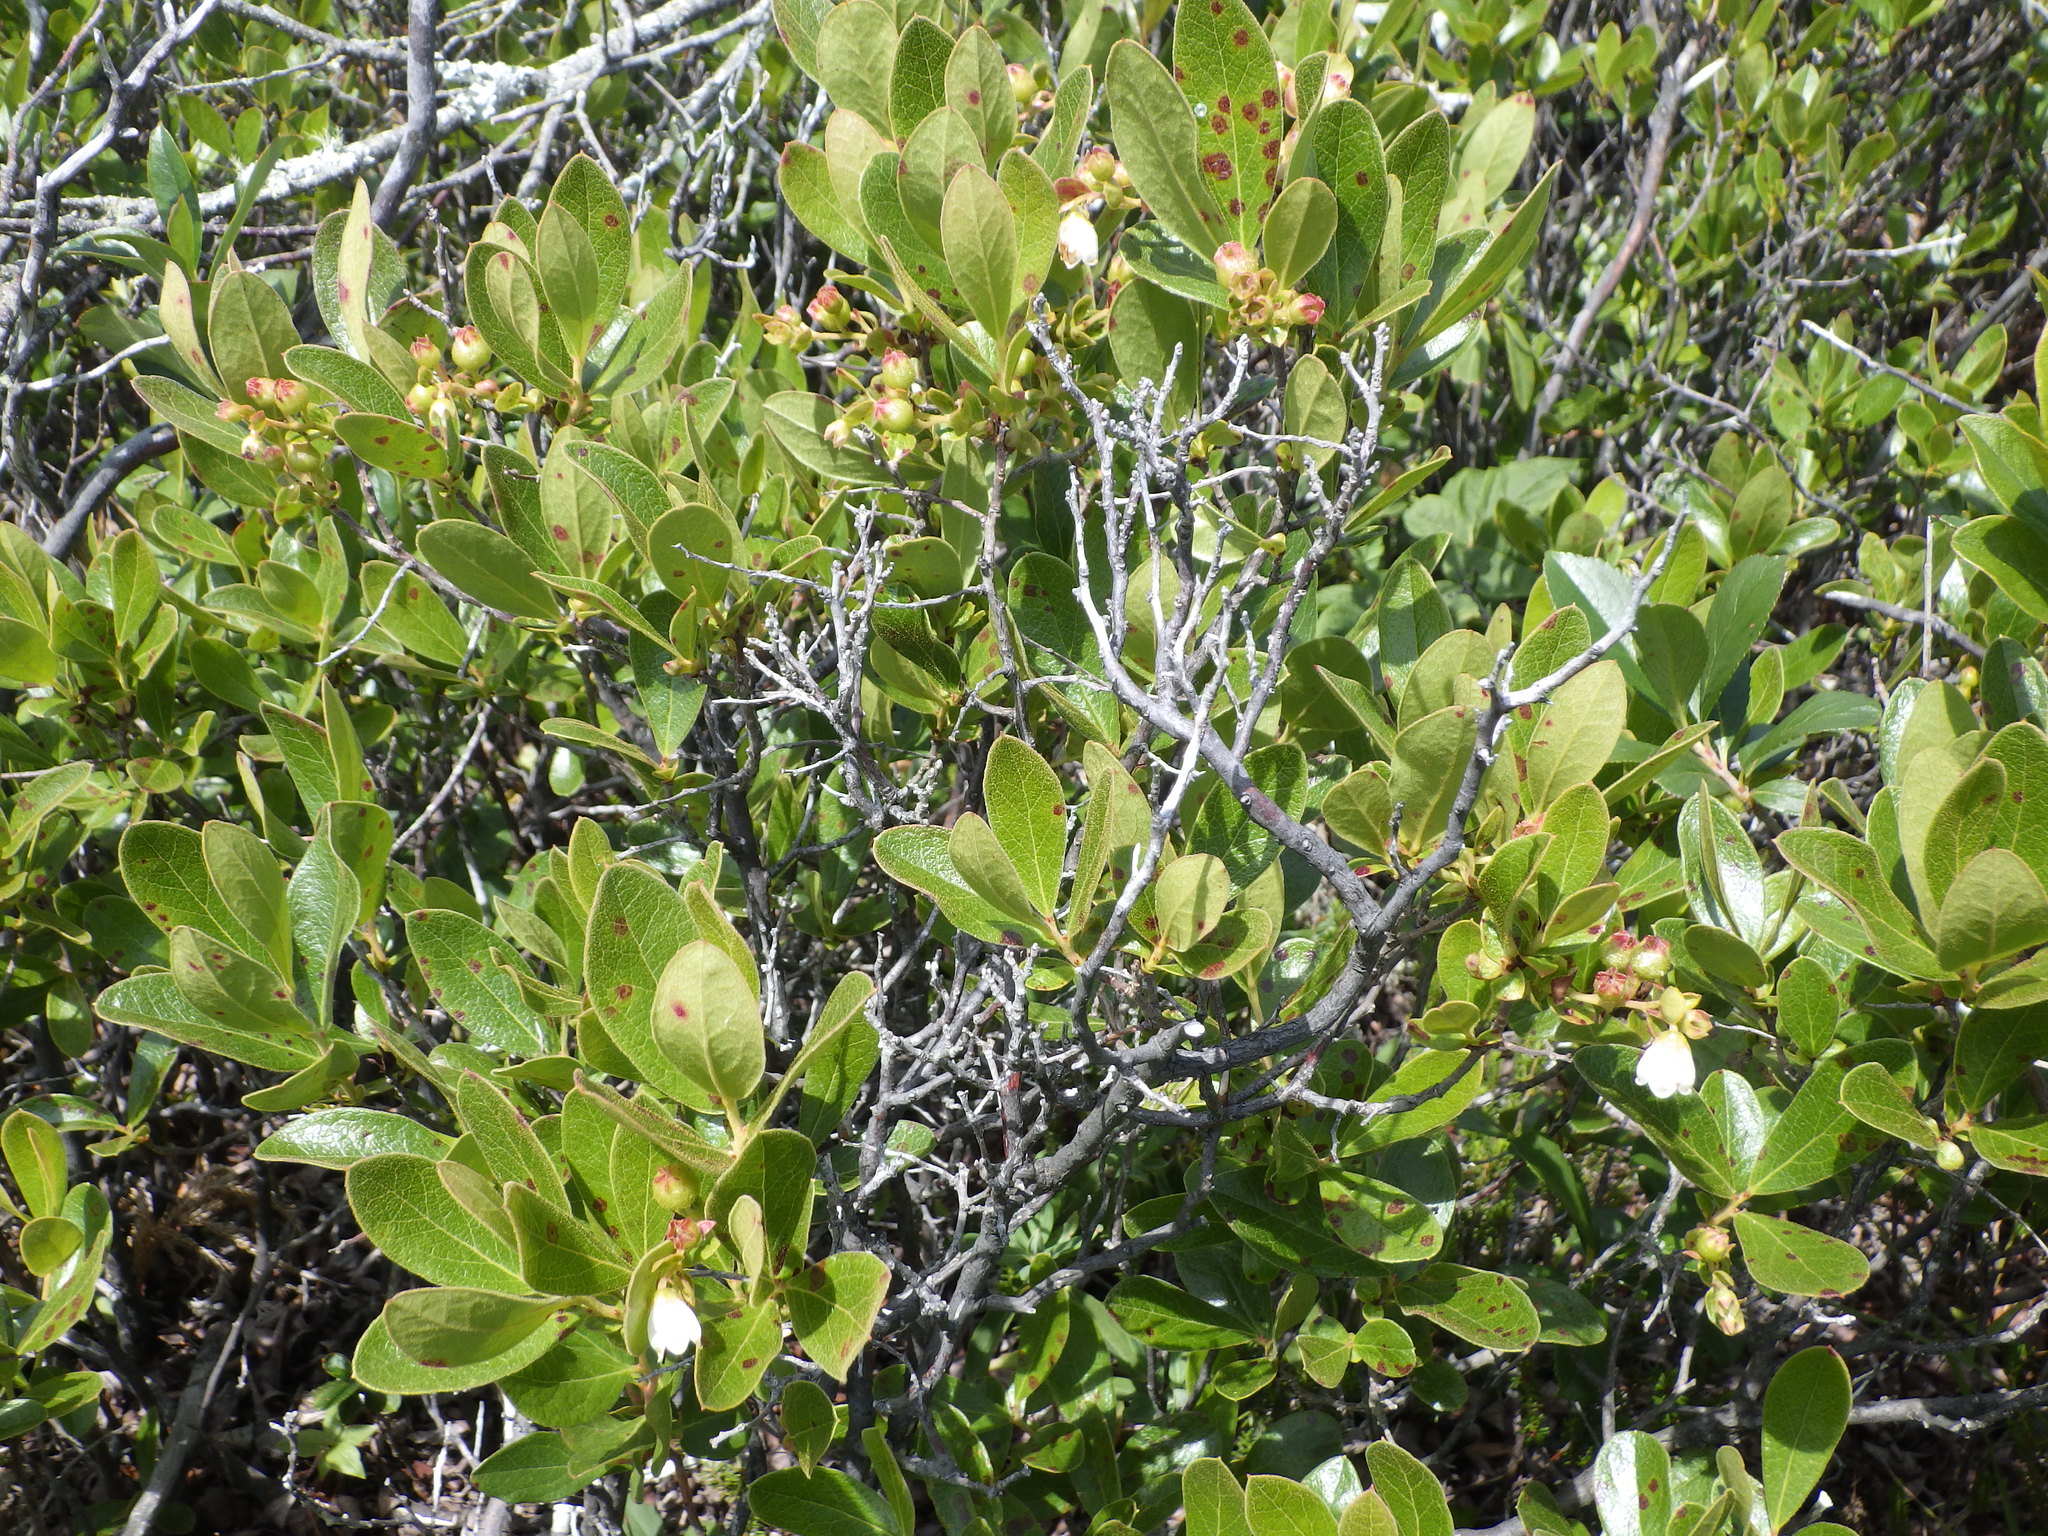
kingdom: Plantae
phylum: Tracheophyta
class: Magnoliopsida
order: Ericales
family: Ericaceae
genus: Gaylussacia
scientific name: Gaylussacia bigeloviana
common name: Bog huckleberry
